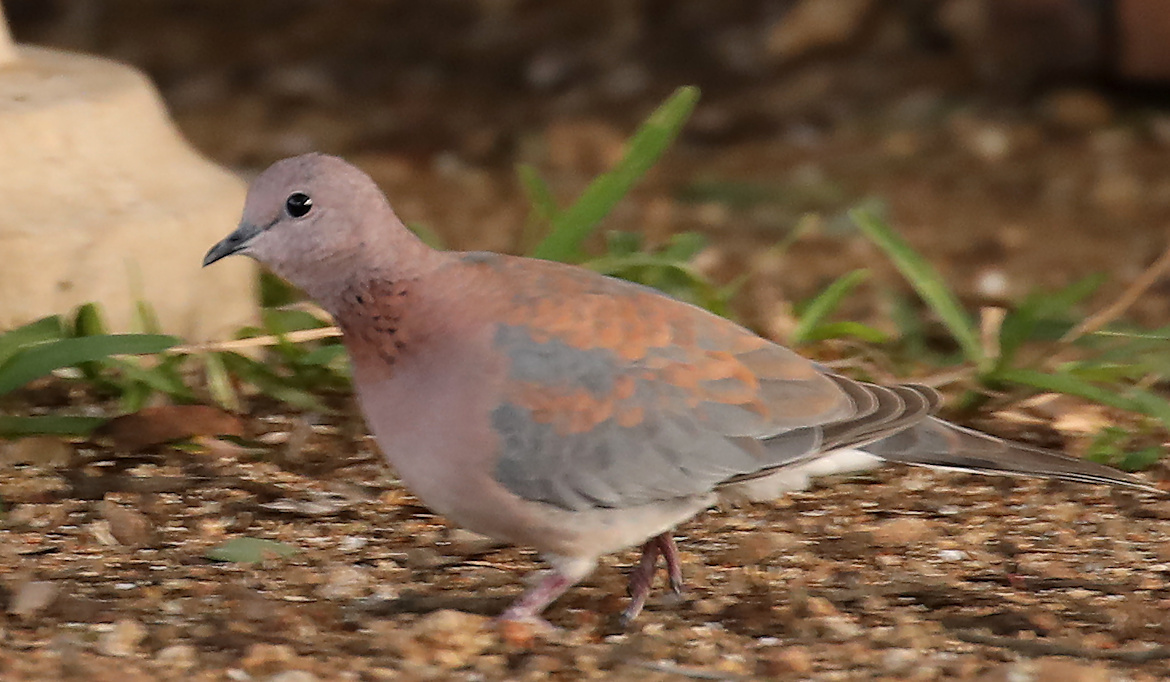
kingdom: Animalia
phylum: Chordata
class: Aves
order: Columbiformes
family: Columbidae
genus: Spilopelia
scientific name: Spilopelia senegalensis
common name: Laughing dove
